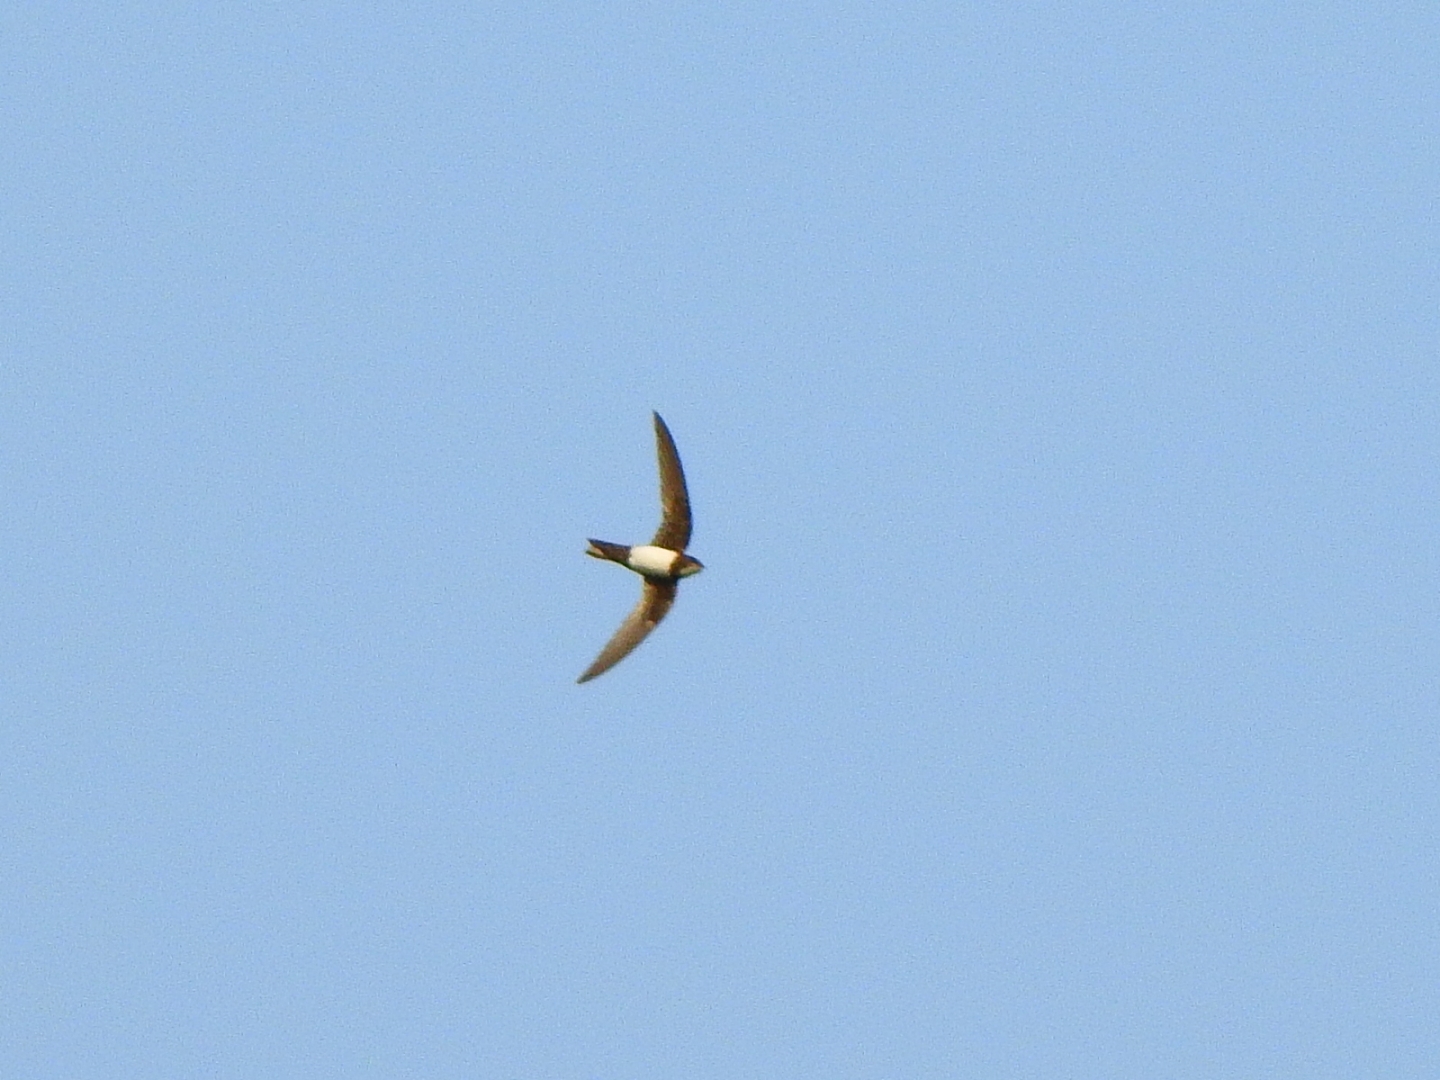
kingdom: Animalia
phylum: Chordata
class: Aves
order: Apodiformes
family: Apodidae
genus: Tachymarptis
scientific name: Tachymarptis melba
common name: Alpine swift
